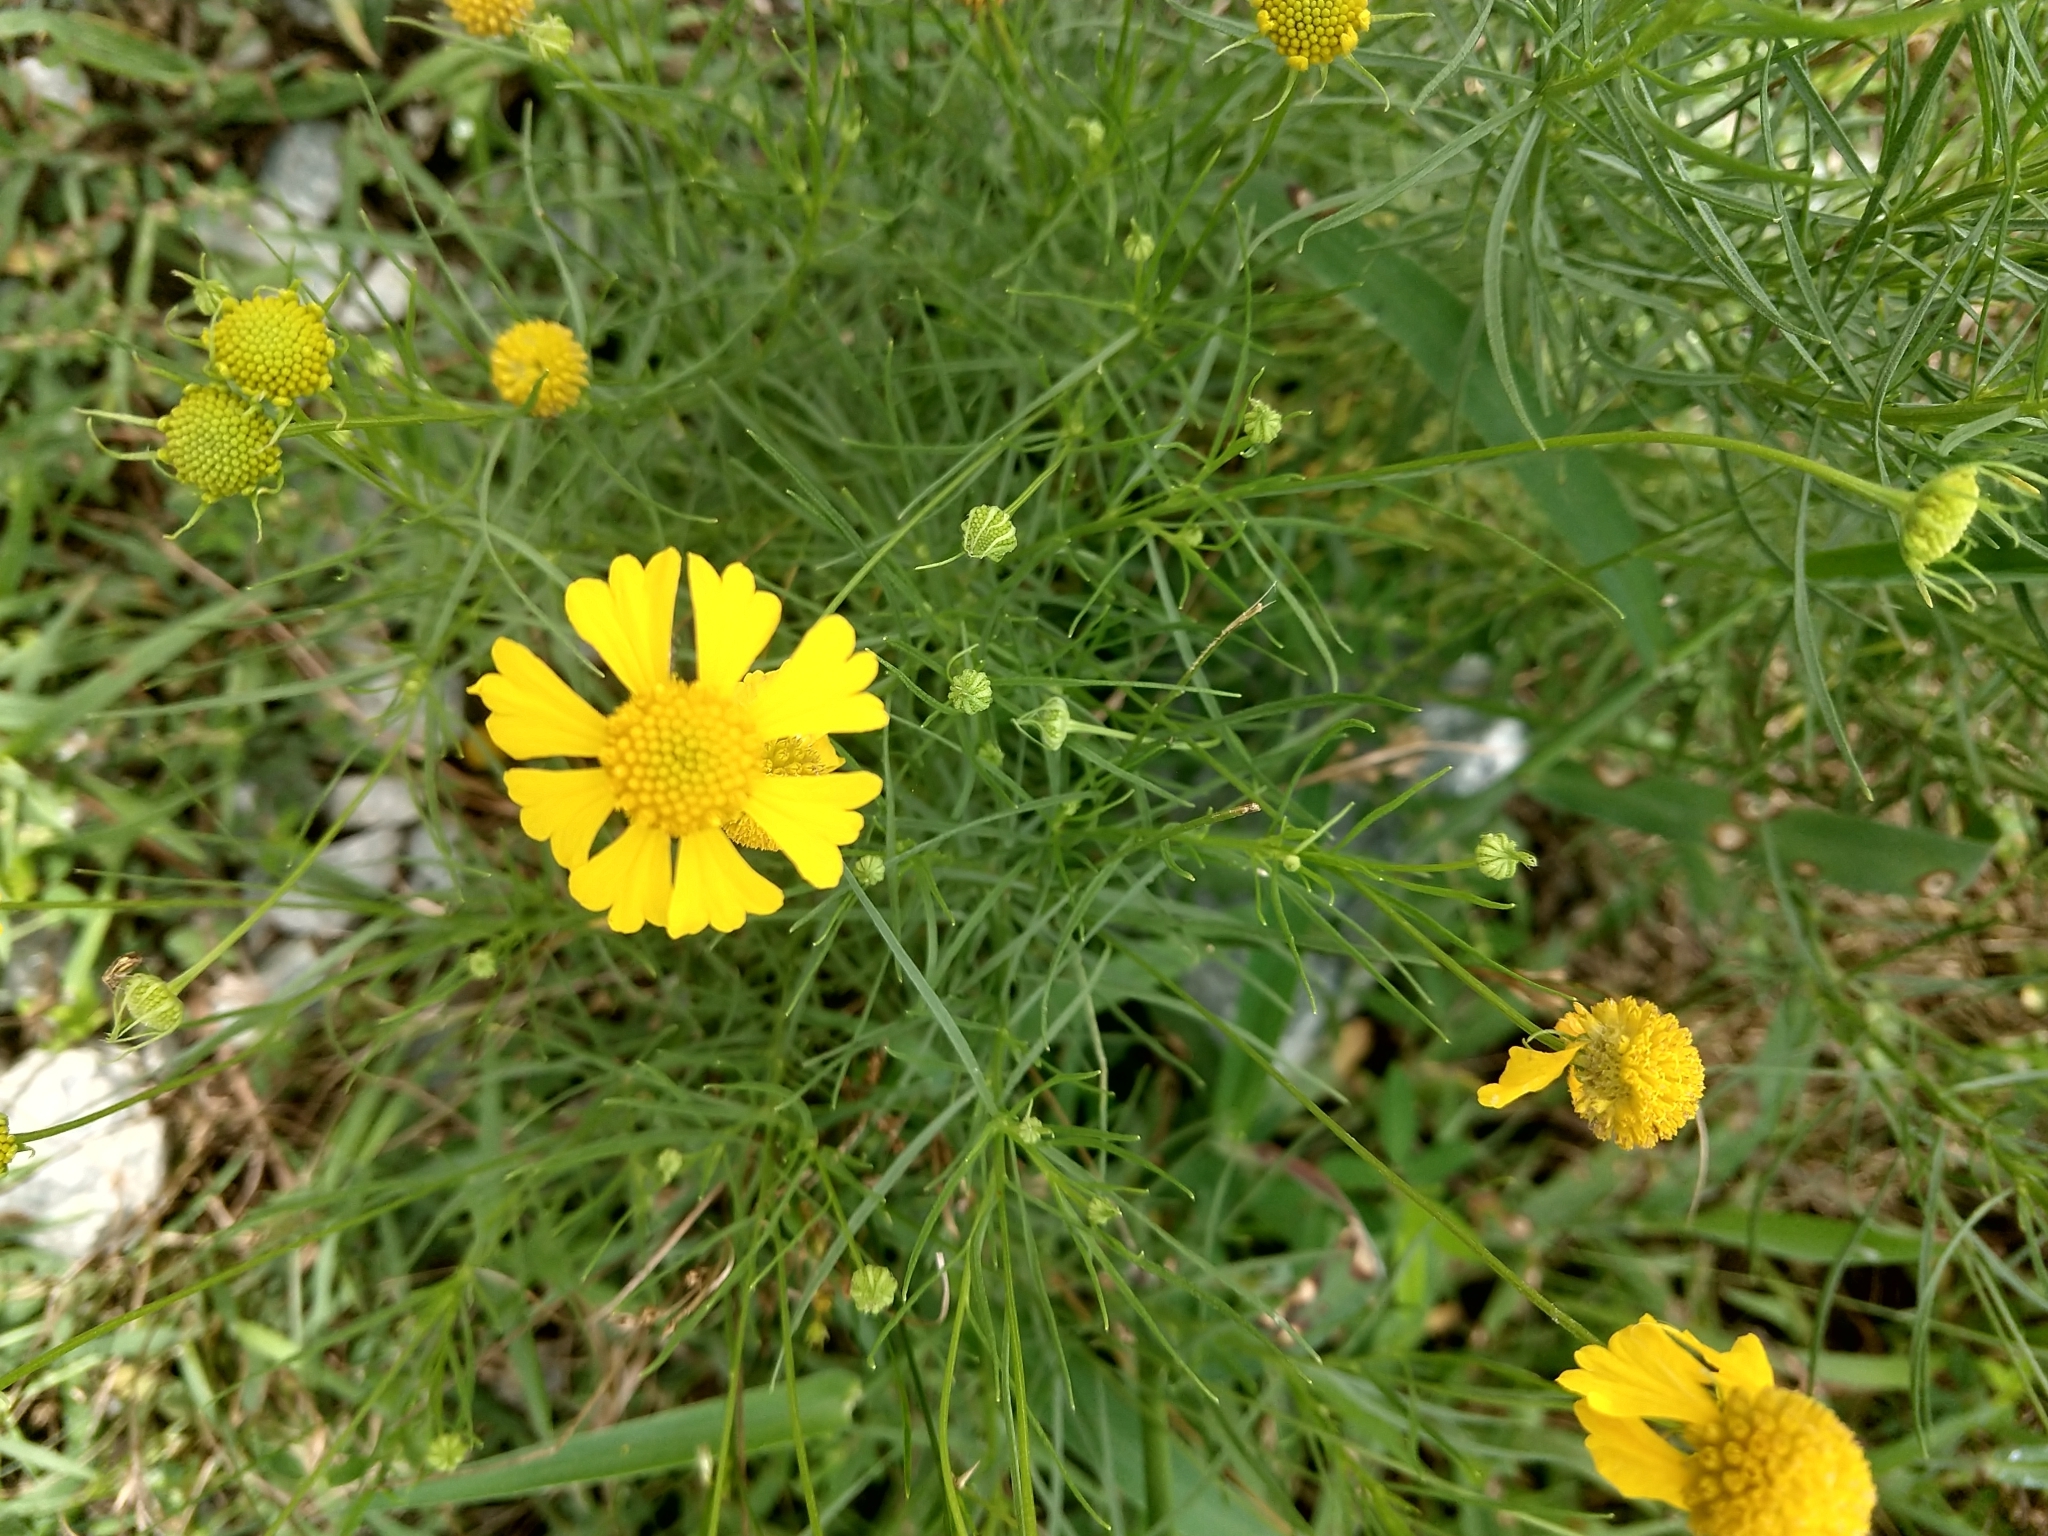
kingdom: Plantae
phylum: Tracheophyta
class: Magnoliopsida
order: Asterales
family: Asteraceae
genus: Helenium
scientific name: Helenium amarum
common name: Bitter sneezeweed
